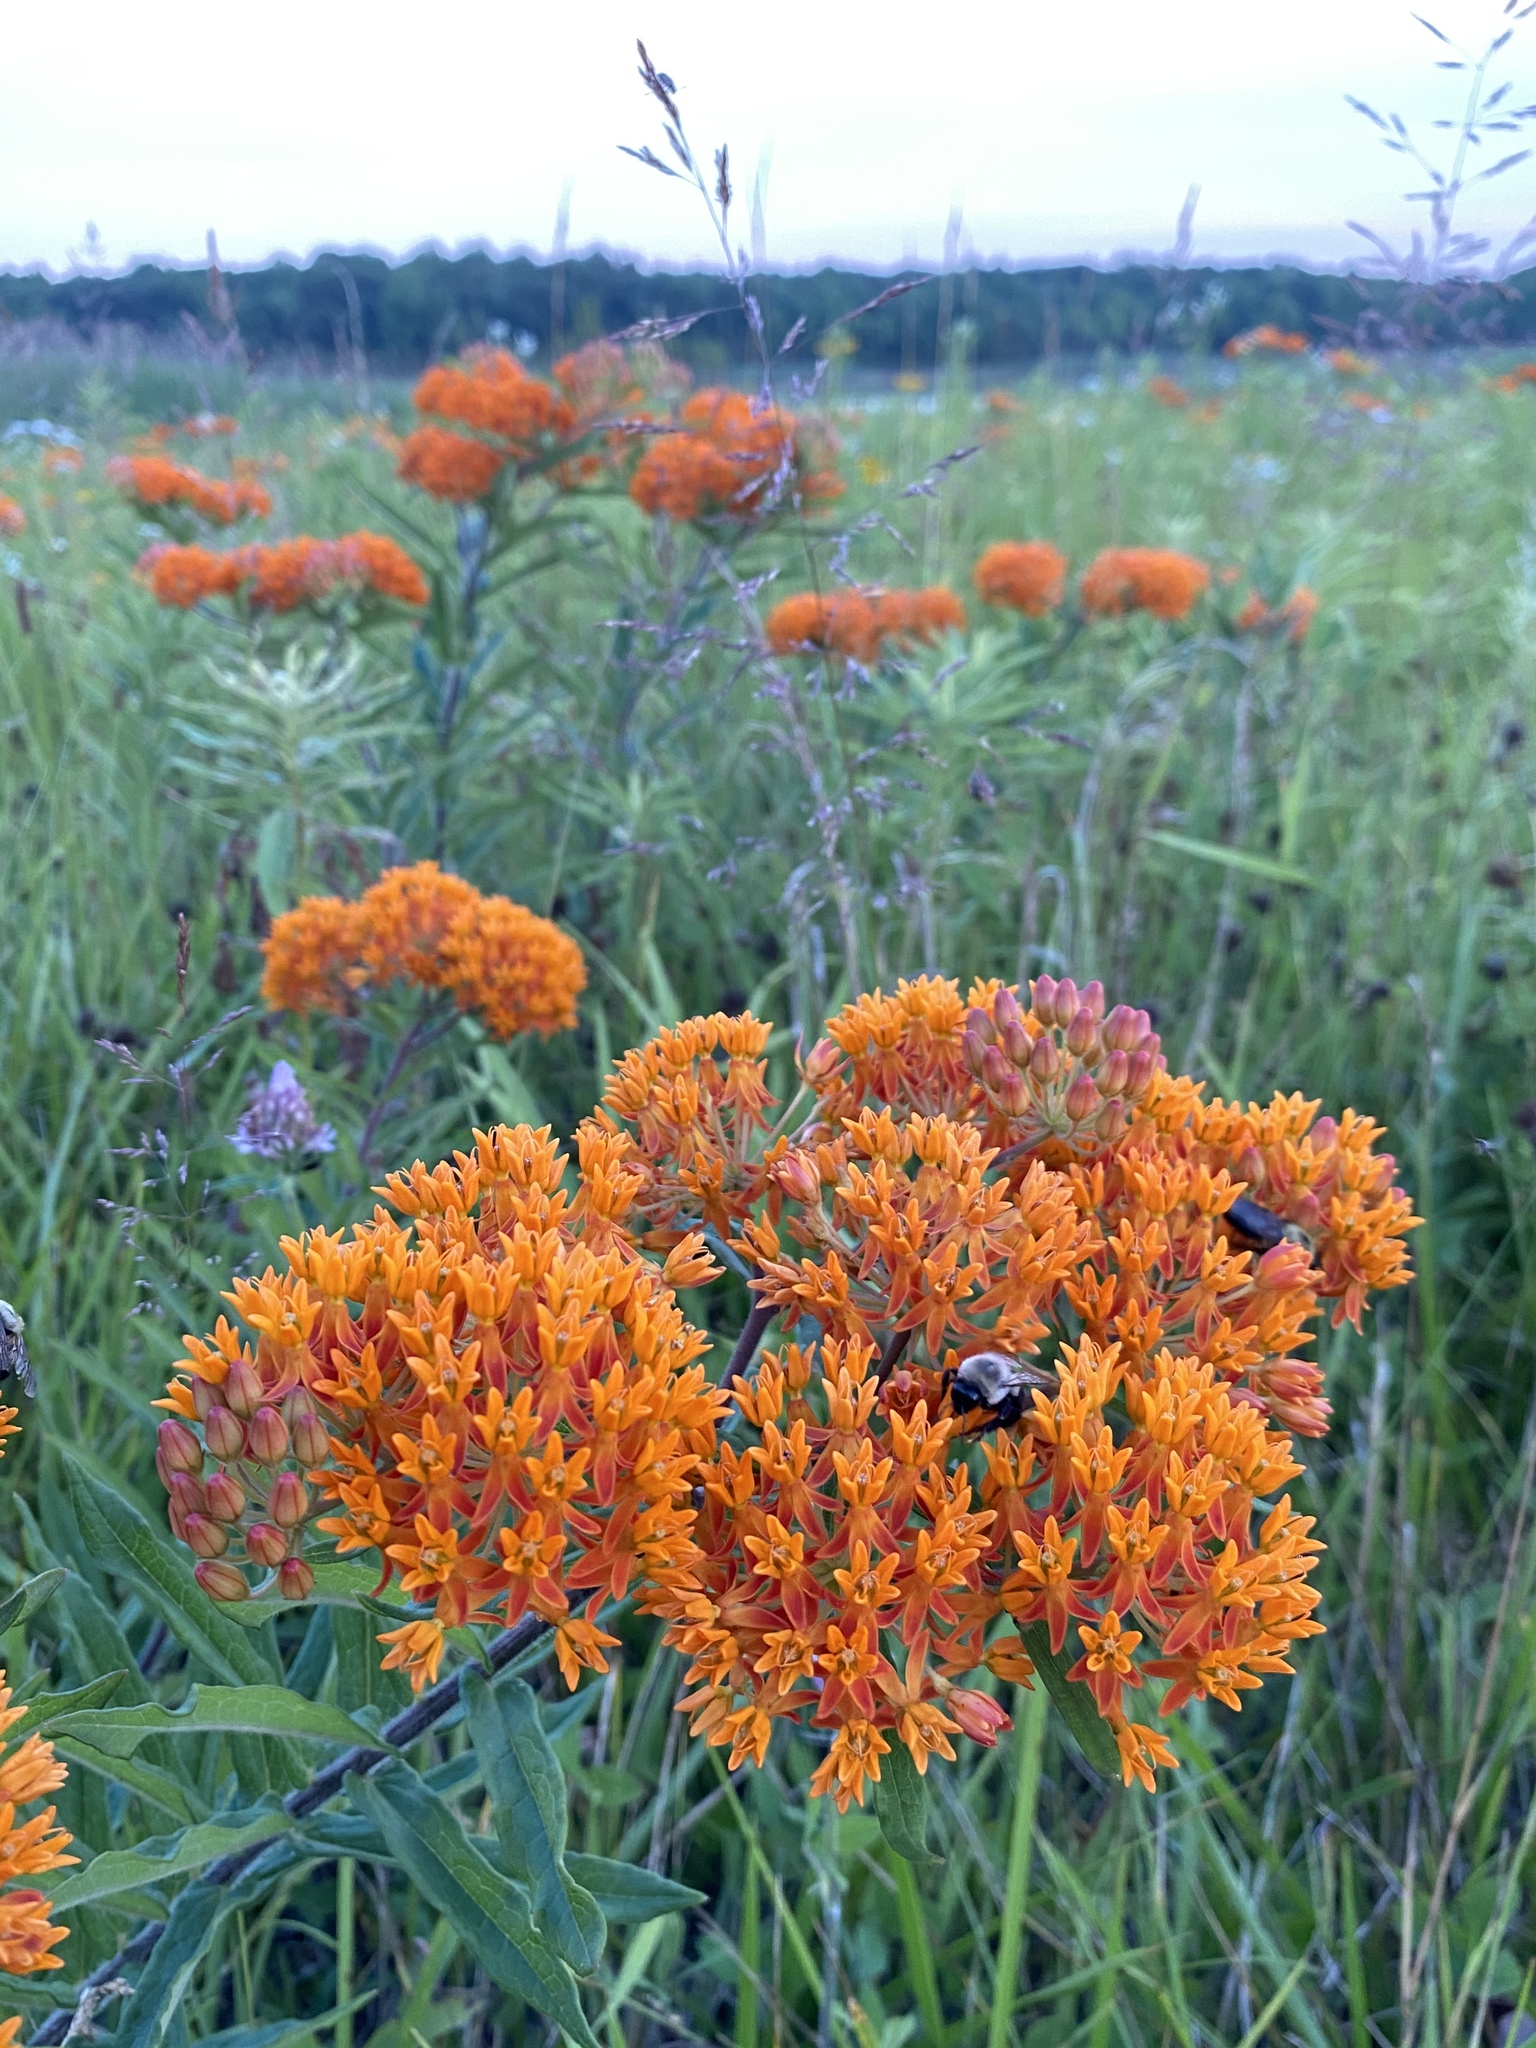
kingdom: Plantae
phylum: Tracheophyta
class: Magnoliopsida
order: Gentianales
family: Apocynaceae
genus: Asclepias
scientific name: Asclepias tuberosa
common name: Butterfly milkweed
